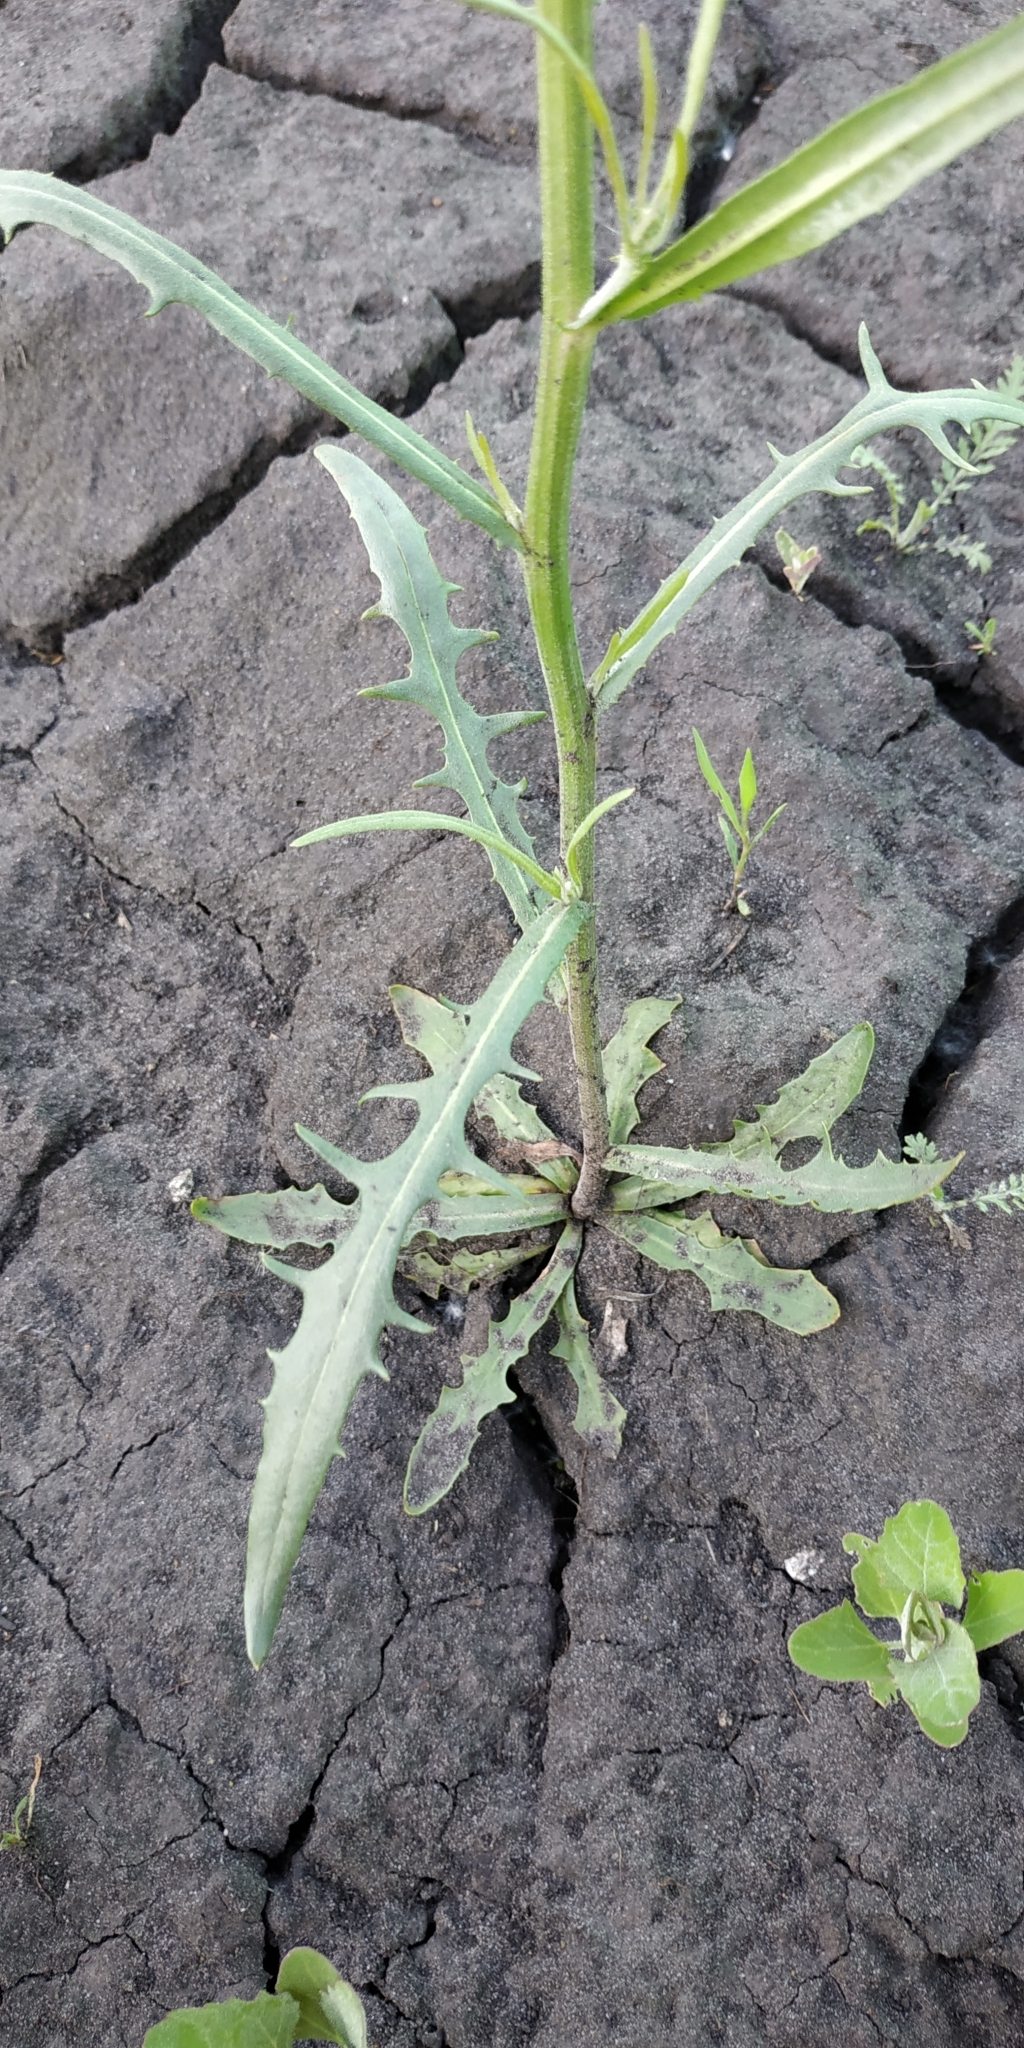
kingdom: Plantae
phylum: Tracheophyta
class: Magnoliopsida
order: Asterales
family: Asteraceae
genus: Crepis
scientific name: Crepis tectorum
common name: Narrow-leaved hawk's-beard
